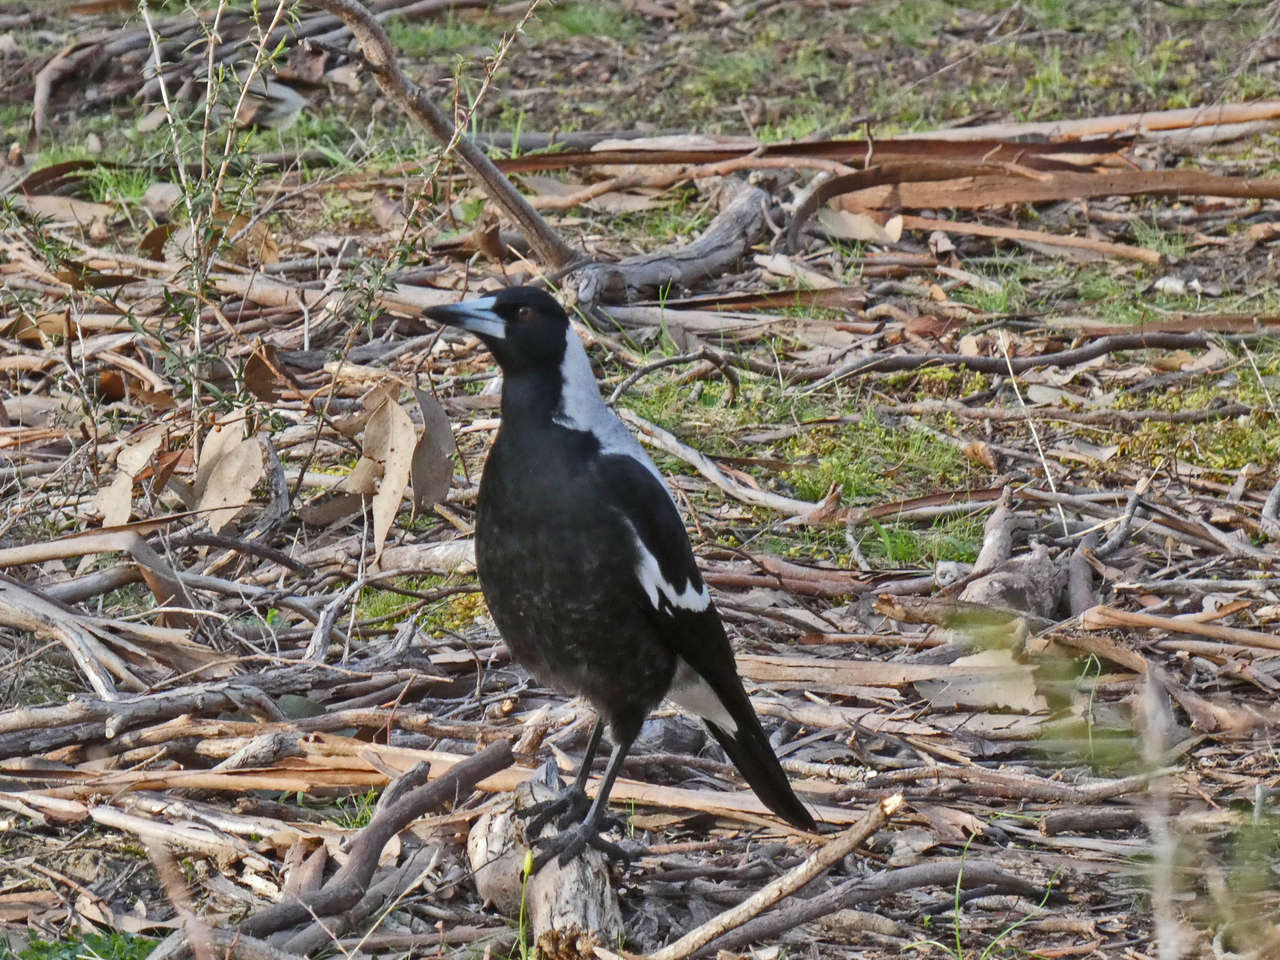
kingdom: Animalia
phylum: Chordata
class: Aves
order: Passeriformes
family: Cracticidae
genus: Gymnorhina
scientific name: Gymnorhina tibicen
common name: Australian magpie
